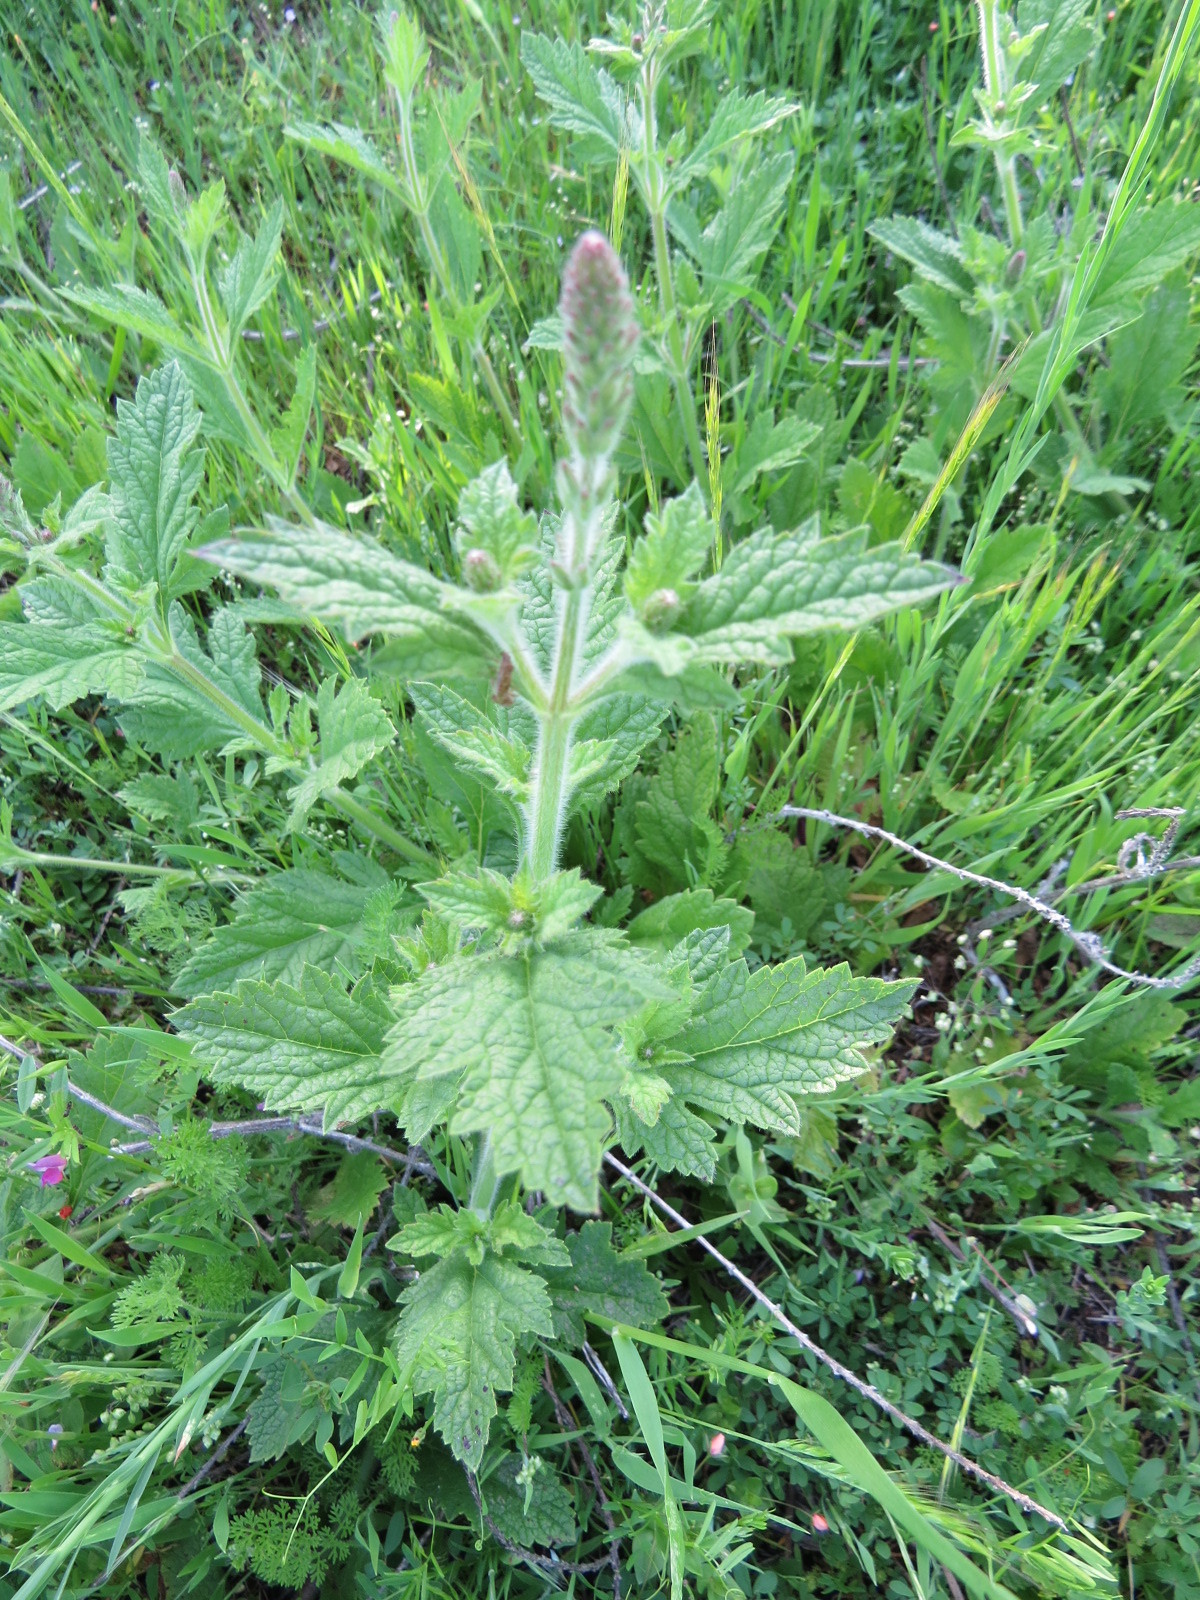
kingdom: Plantae
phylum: Tracheophyta
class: Magnoliopsida
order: Lamiales
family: Verbenaceae
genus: Verbena
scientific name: Verbena lasiostachys
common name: Vervain
